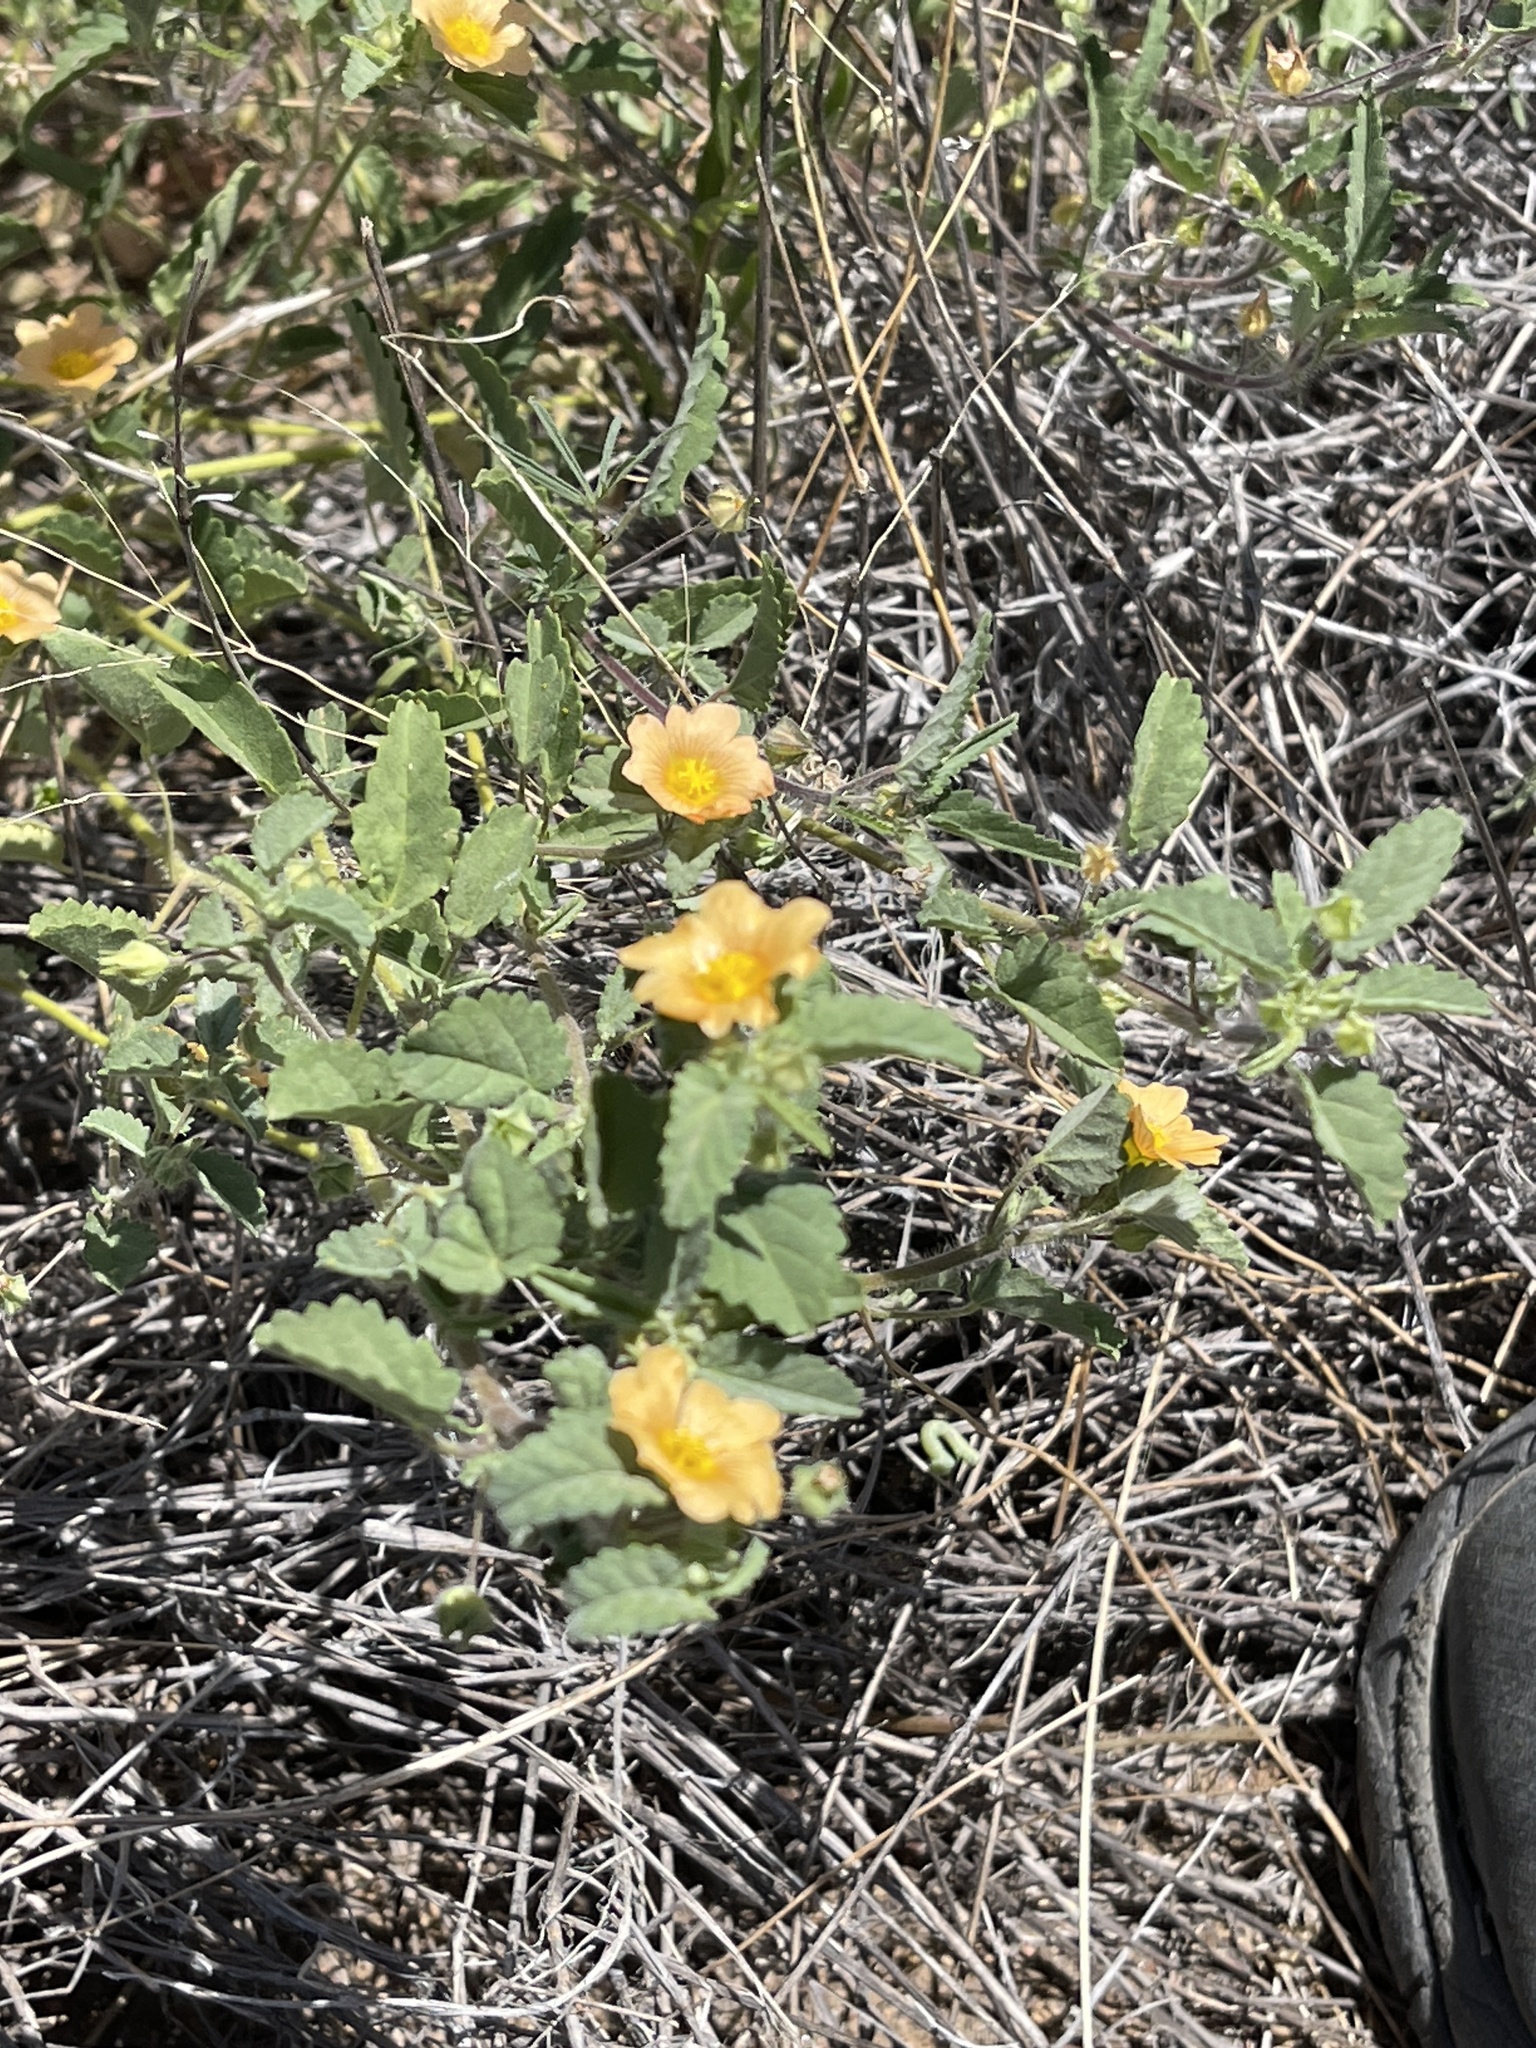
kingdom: Plantae
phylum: Tracheophyta
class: Magnoliopsida
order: Malvales
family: Malvaceae
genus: Sida
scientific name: Sida abutilifolia
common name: Spreading fanpetals
